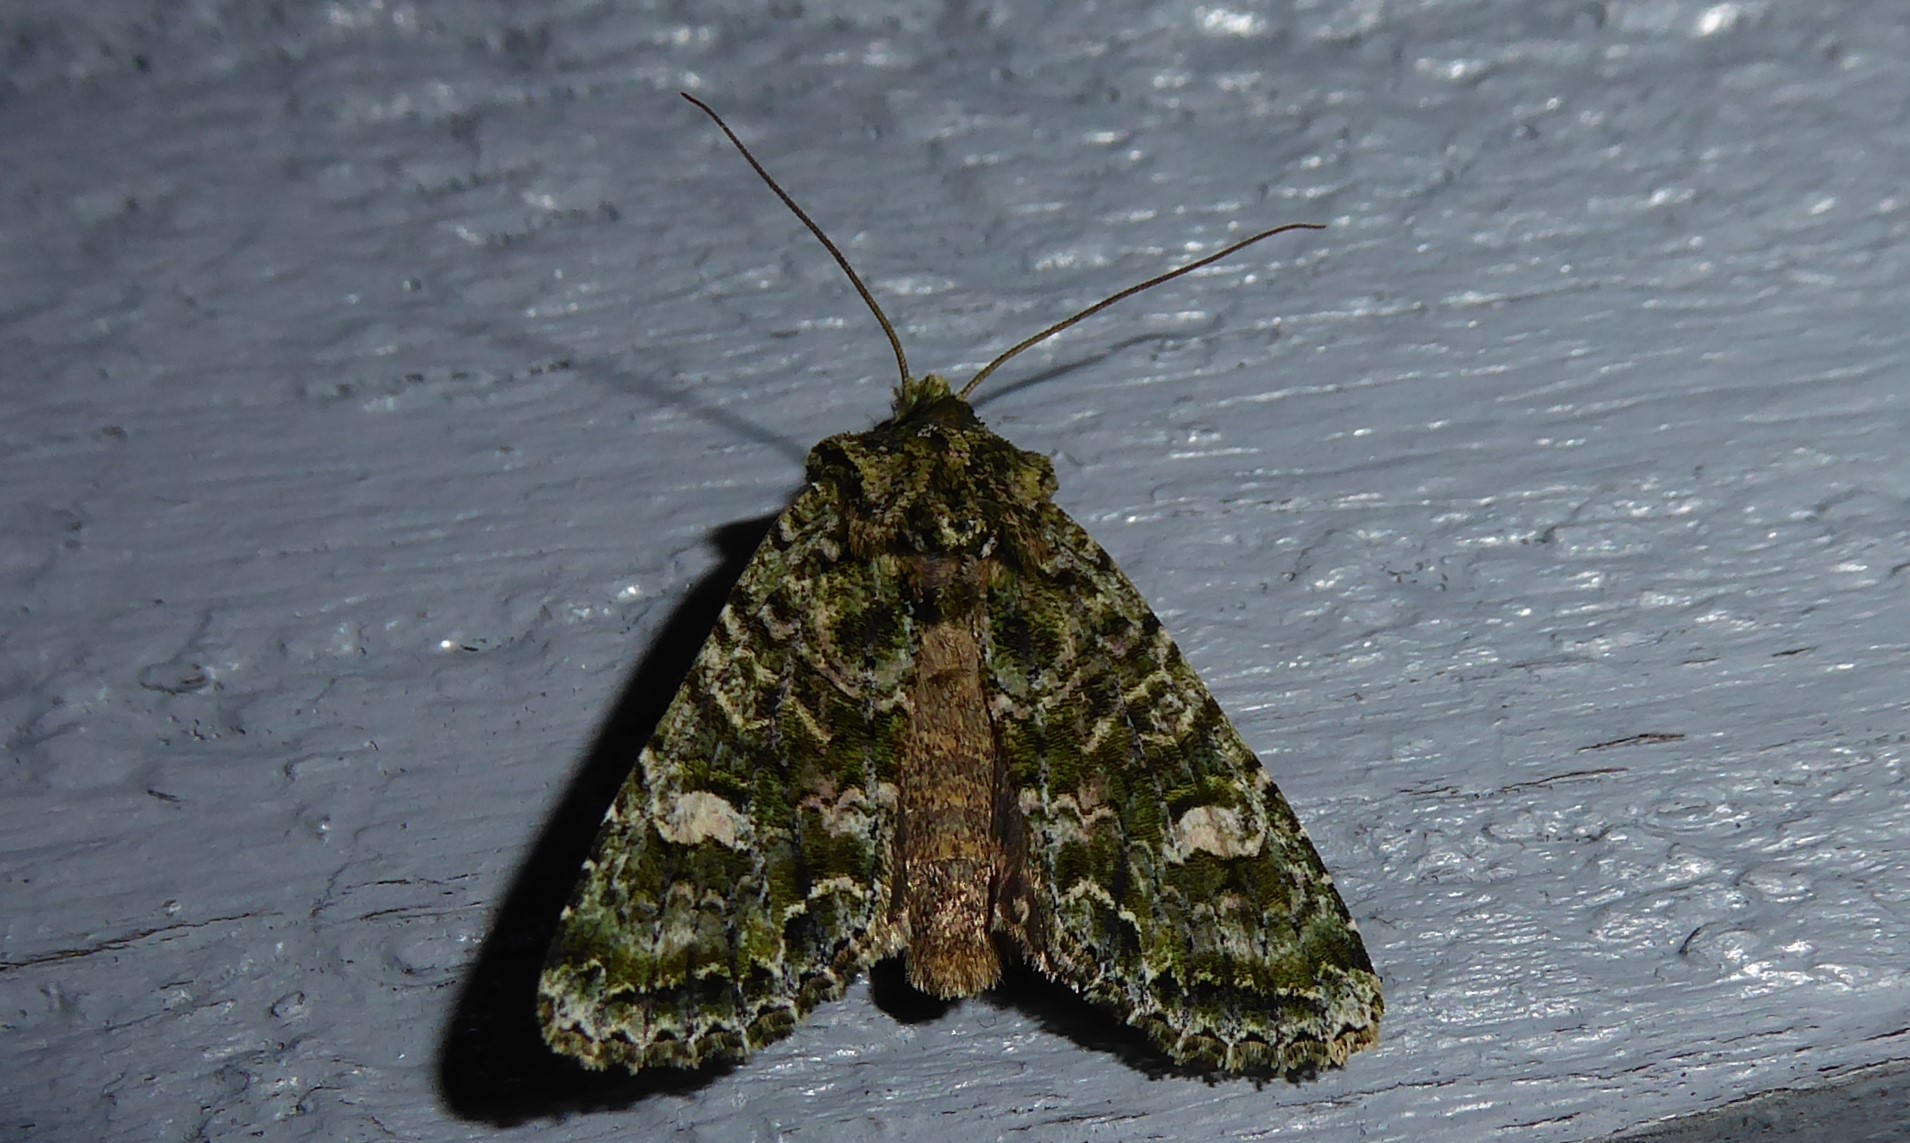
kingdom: Animalia
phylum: Arthropoda
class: Insecta
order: Lepidoptera
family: Noctuidae
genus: Ichneutica
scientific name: Ichneutica
